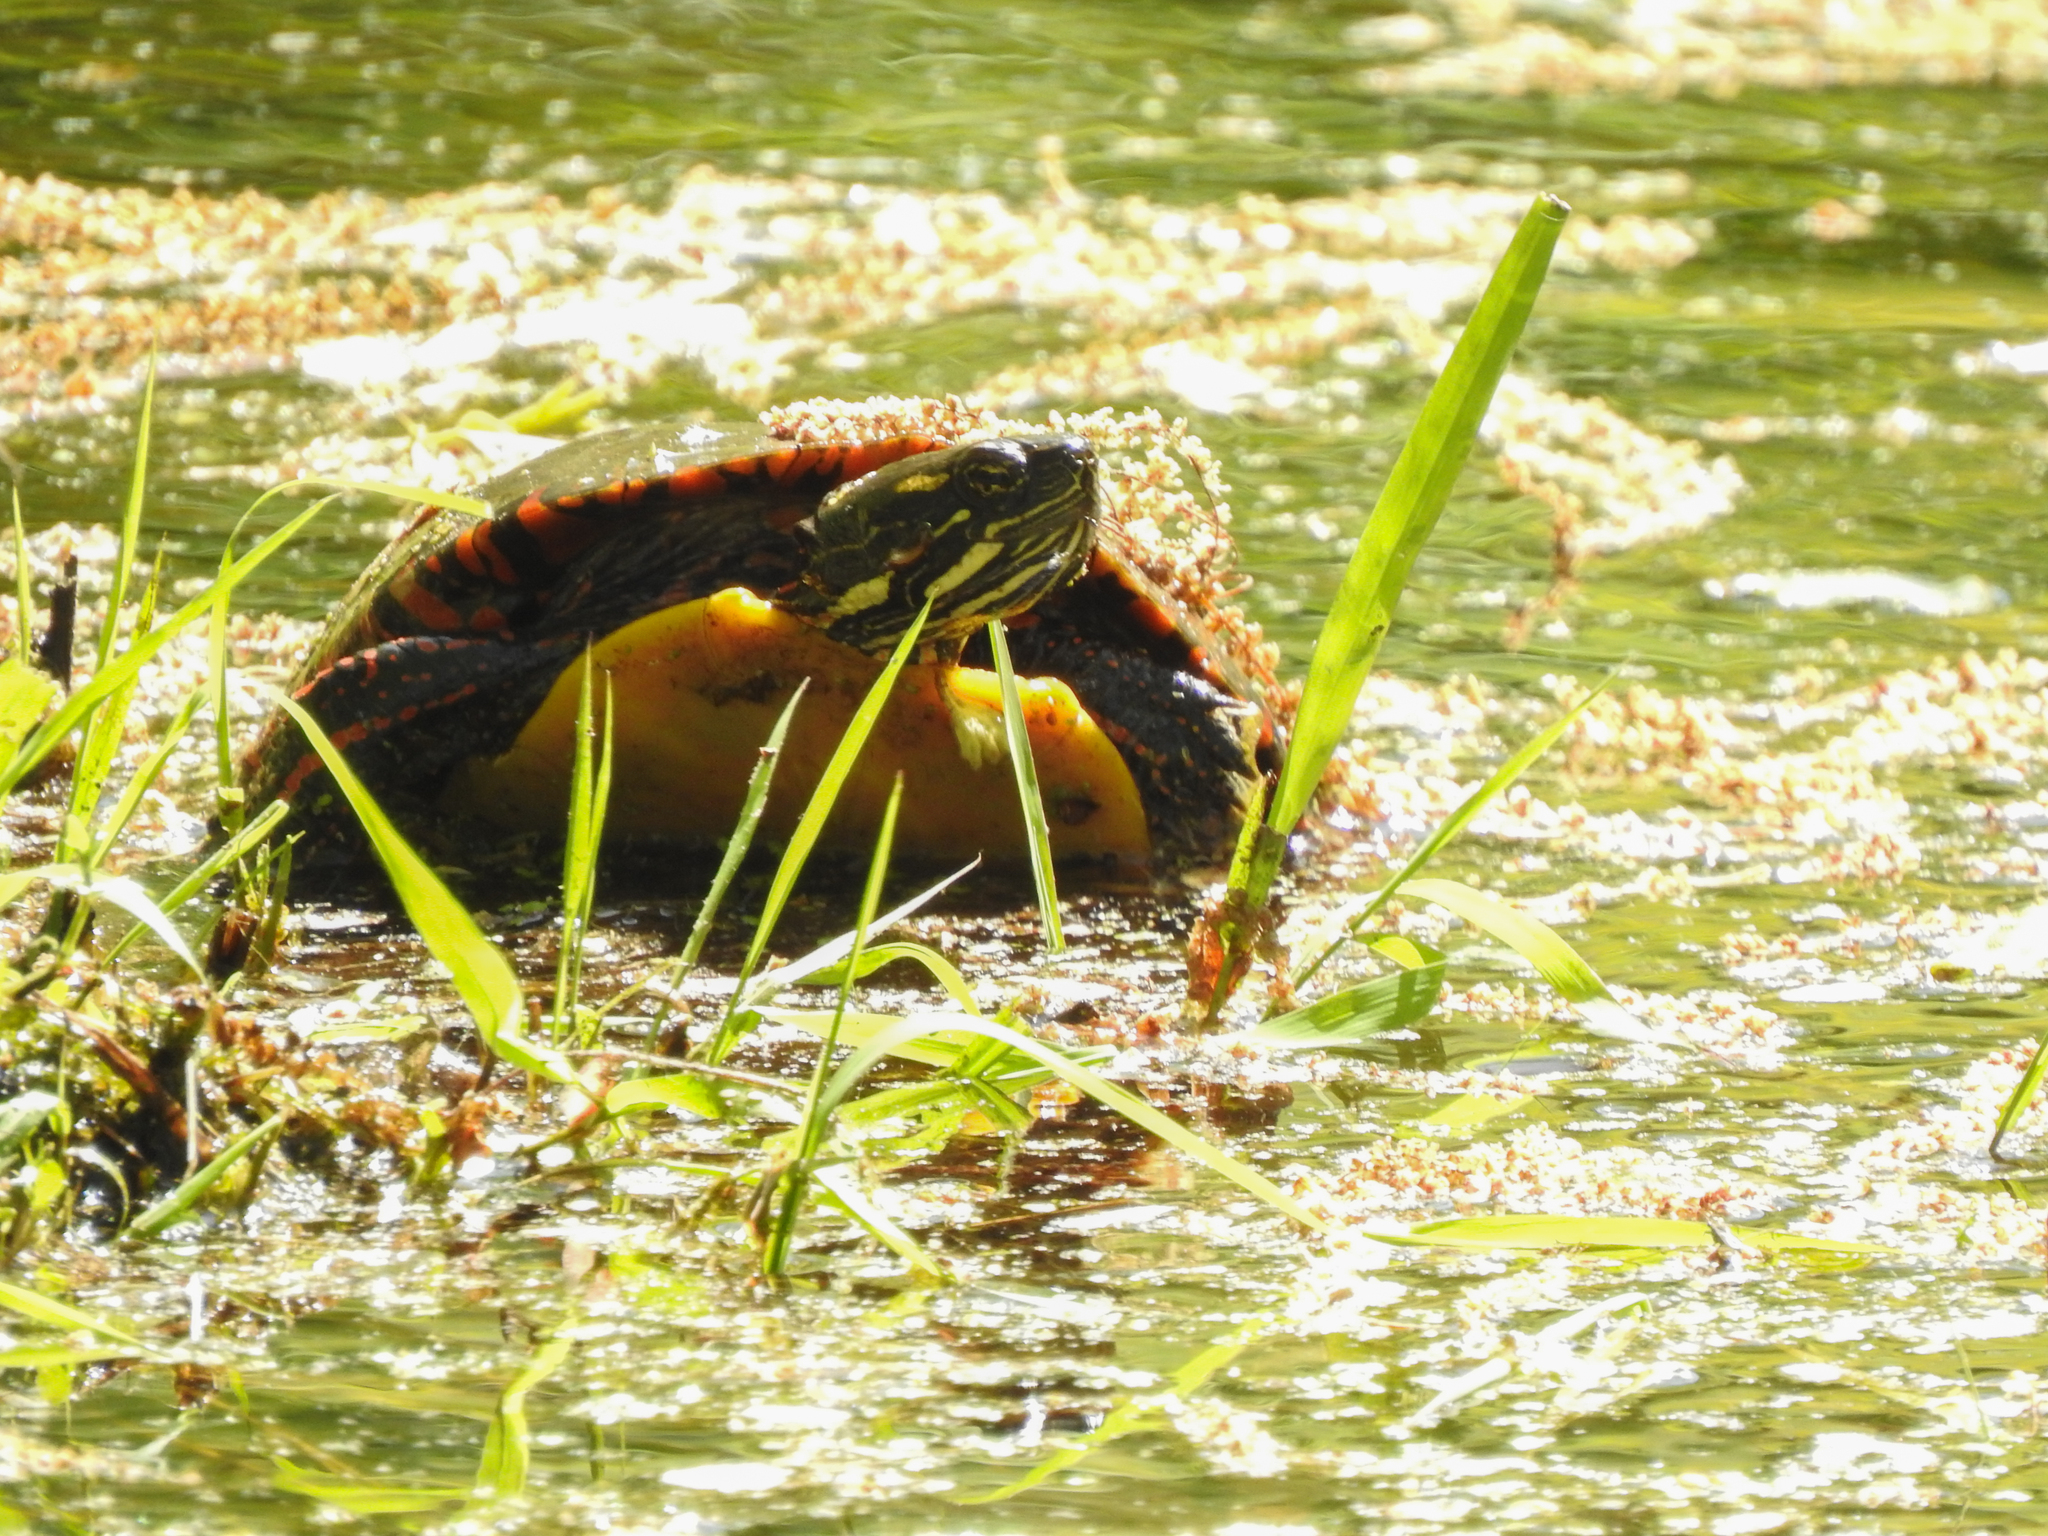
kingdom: Animalia
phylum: Chordata
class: Testudines
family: Emydidae
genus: Chrysemys
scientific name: Chrysemys picta
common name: Painted turtle
